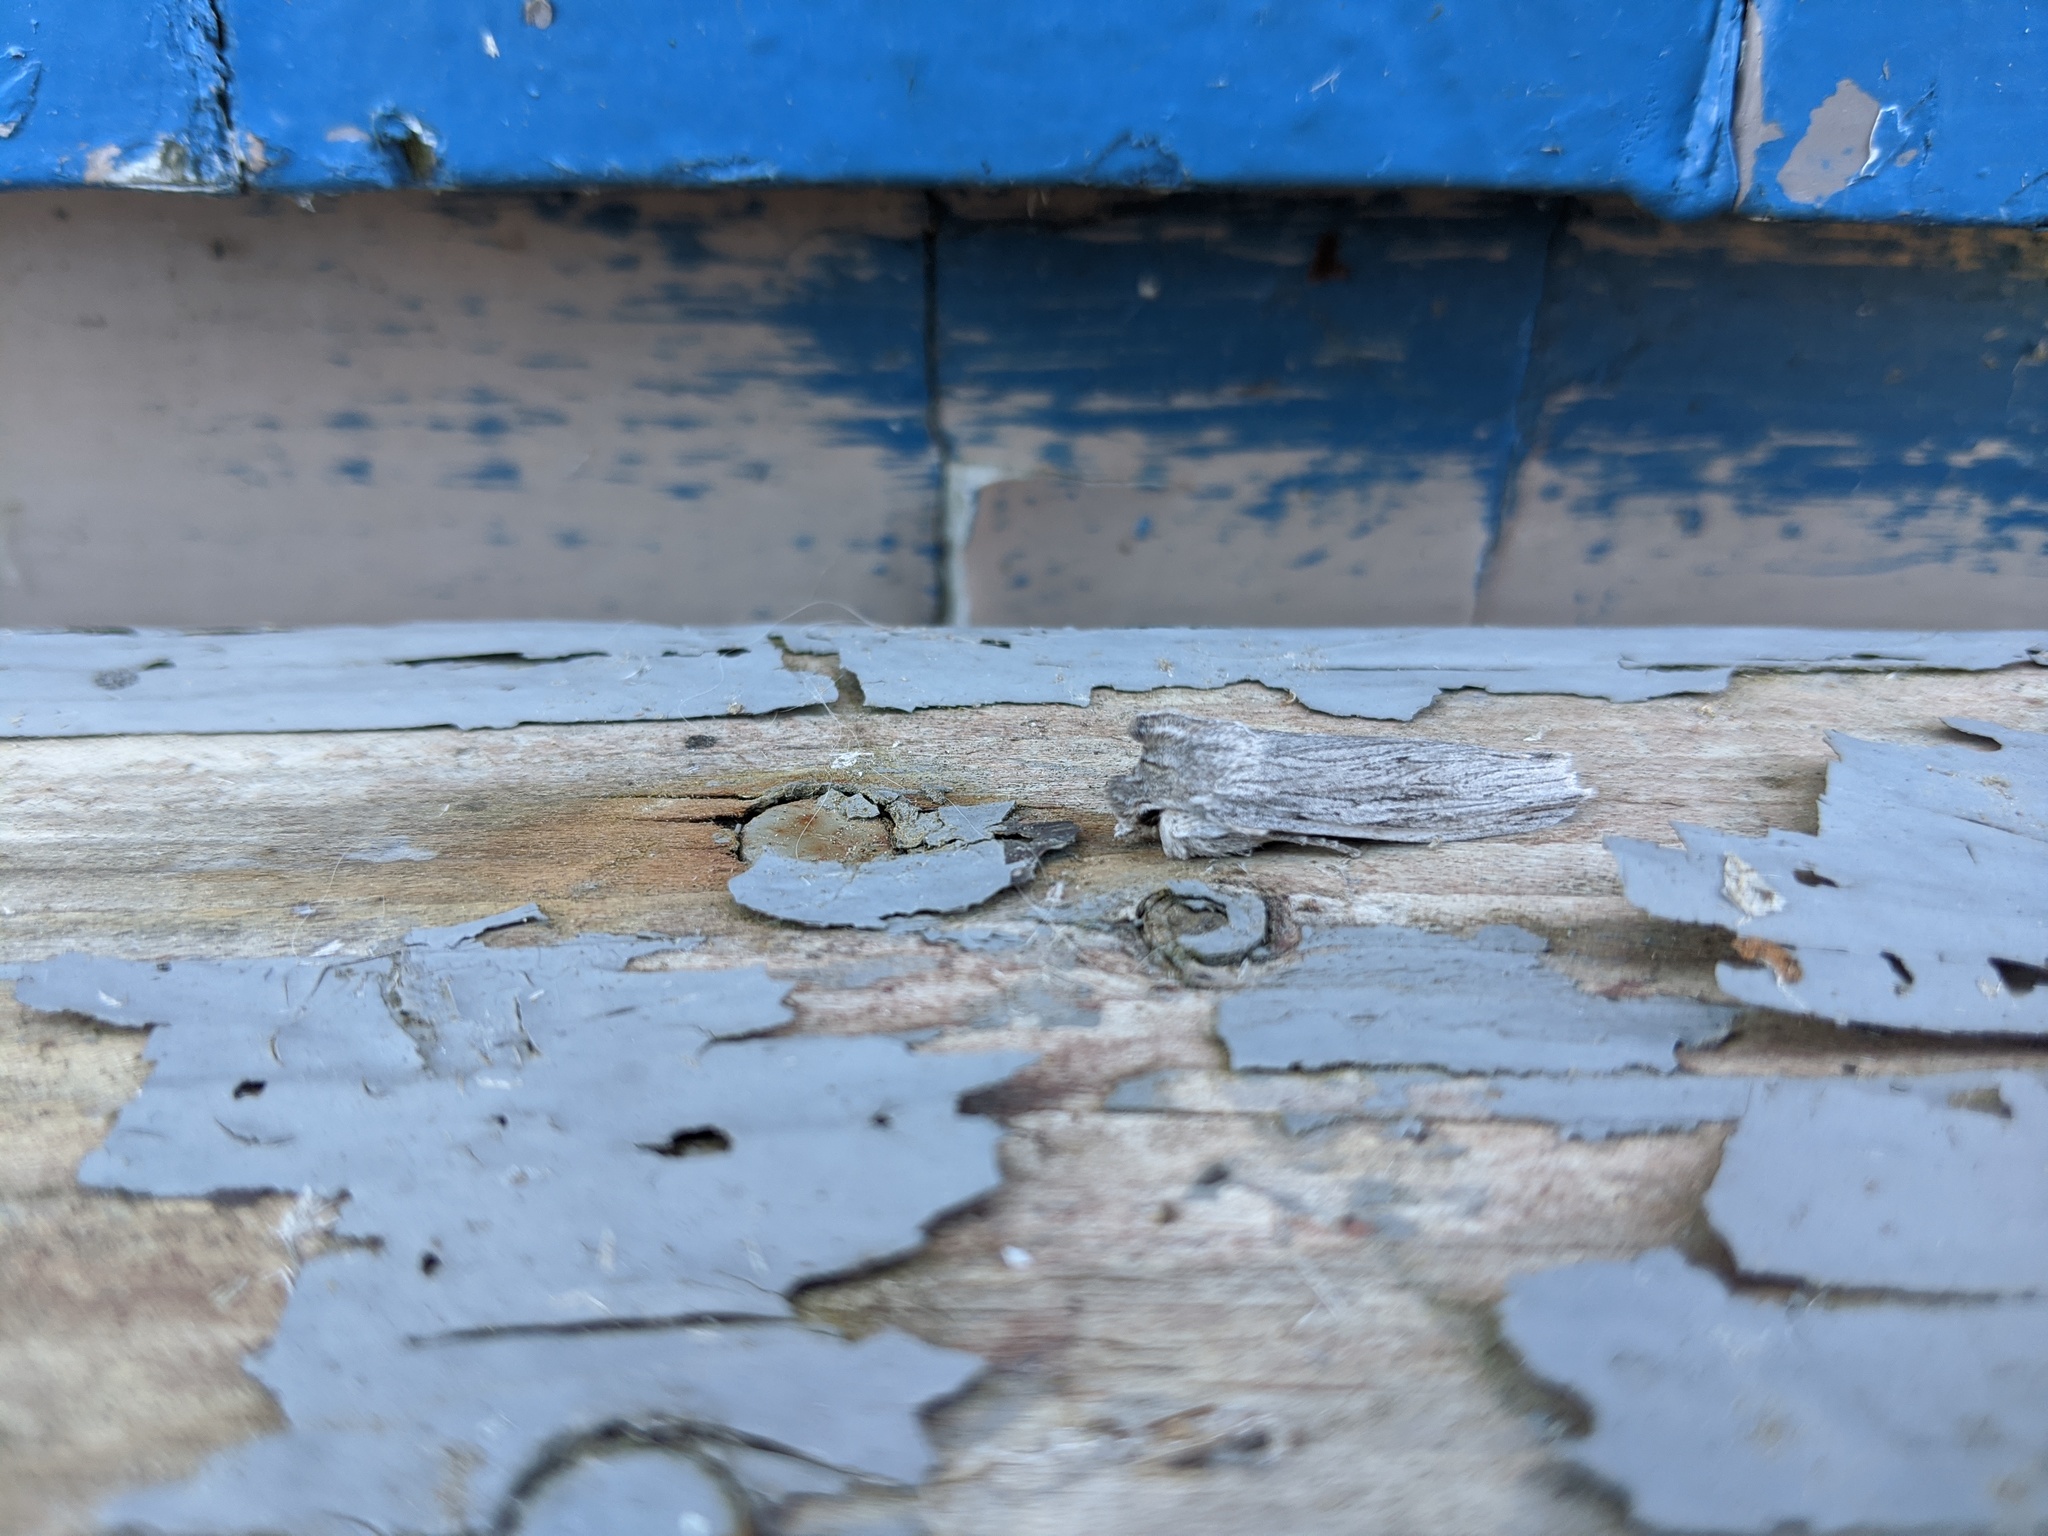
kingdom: Animalia
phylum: Arthropoda
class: Insecta
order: Lepidoptera
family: Noctuidae
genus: Lithophane
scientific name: Lithophane fagina
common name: Hoary pinion moth
